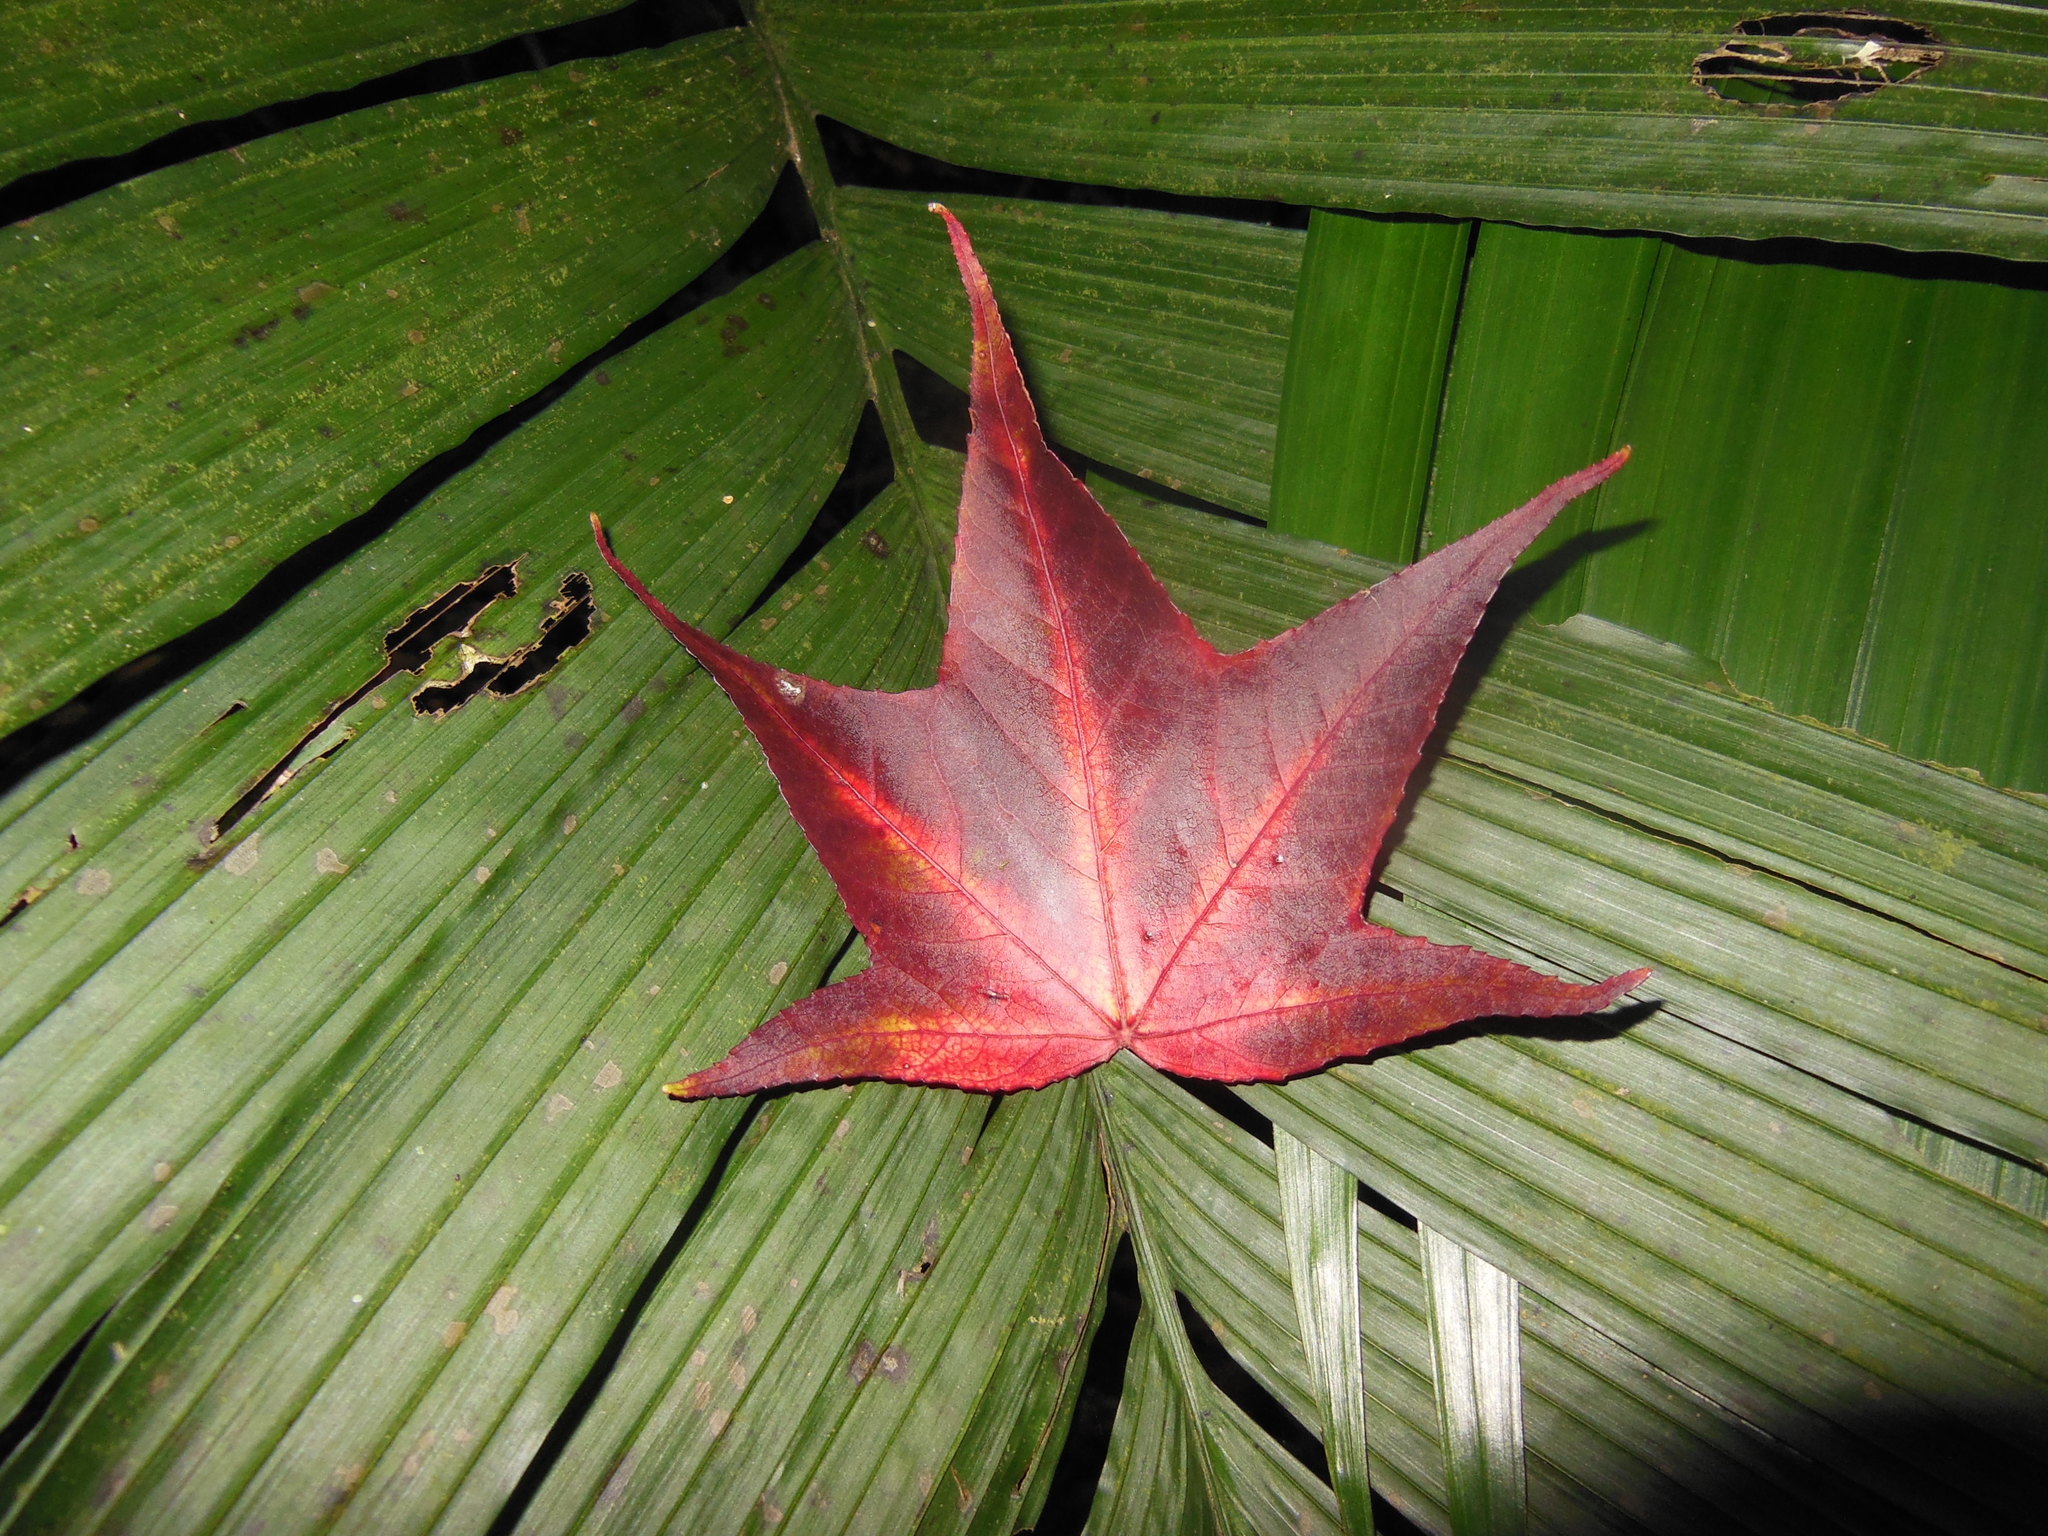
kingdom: Plantae
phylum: Tracheophyta
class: Magnoliopsida
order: Saxifragales
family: Altingiaceae
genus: Liquidambar
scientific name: Liquidambar styraciflua
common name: Sweet gum
